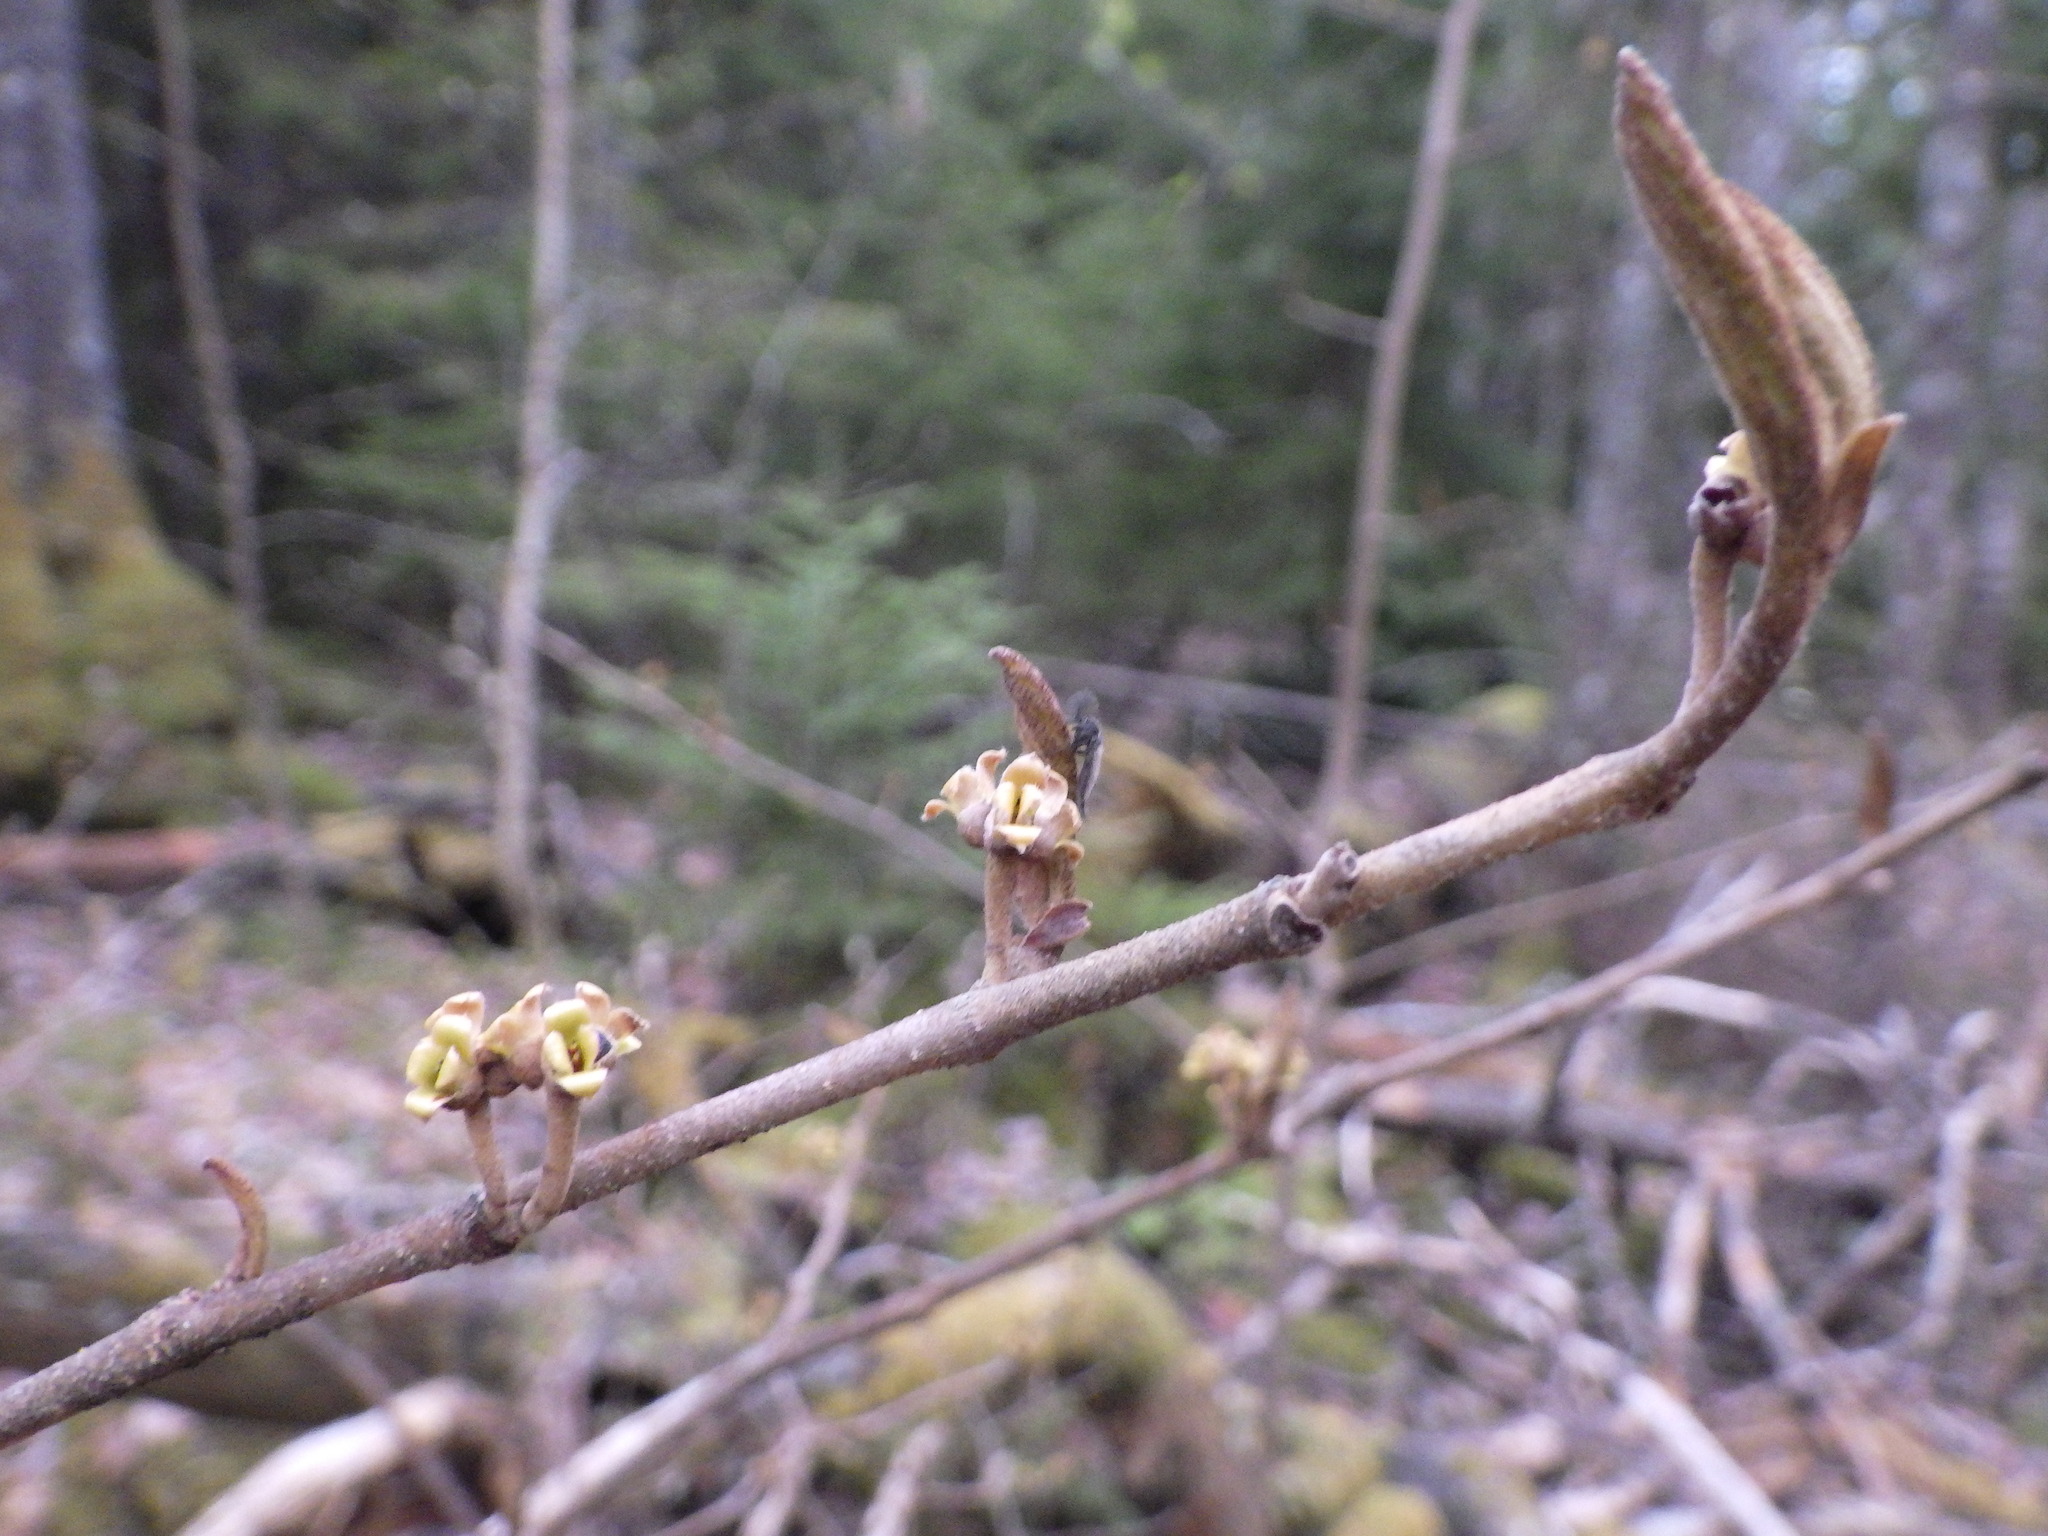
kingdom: Plantae
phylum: Tracheophyta
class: Magnoliopsida
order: Saxifragales
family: Hamamelidaceae
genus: Hamamelis
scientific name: Hamamelis virginiana
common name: Witch-hazel
